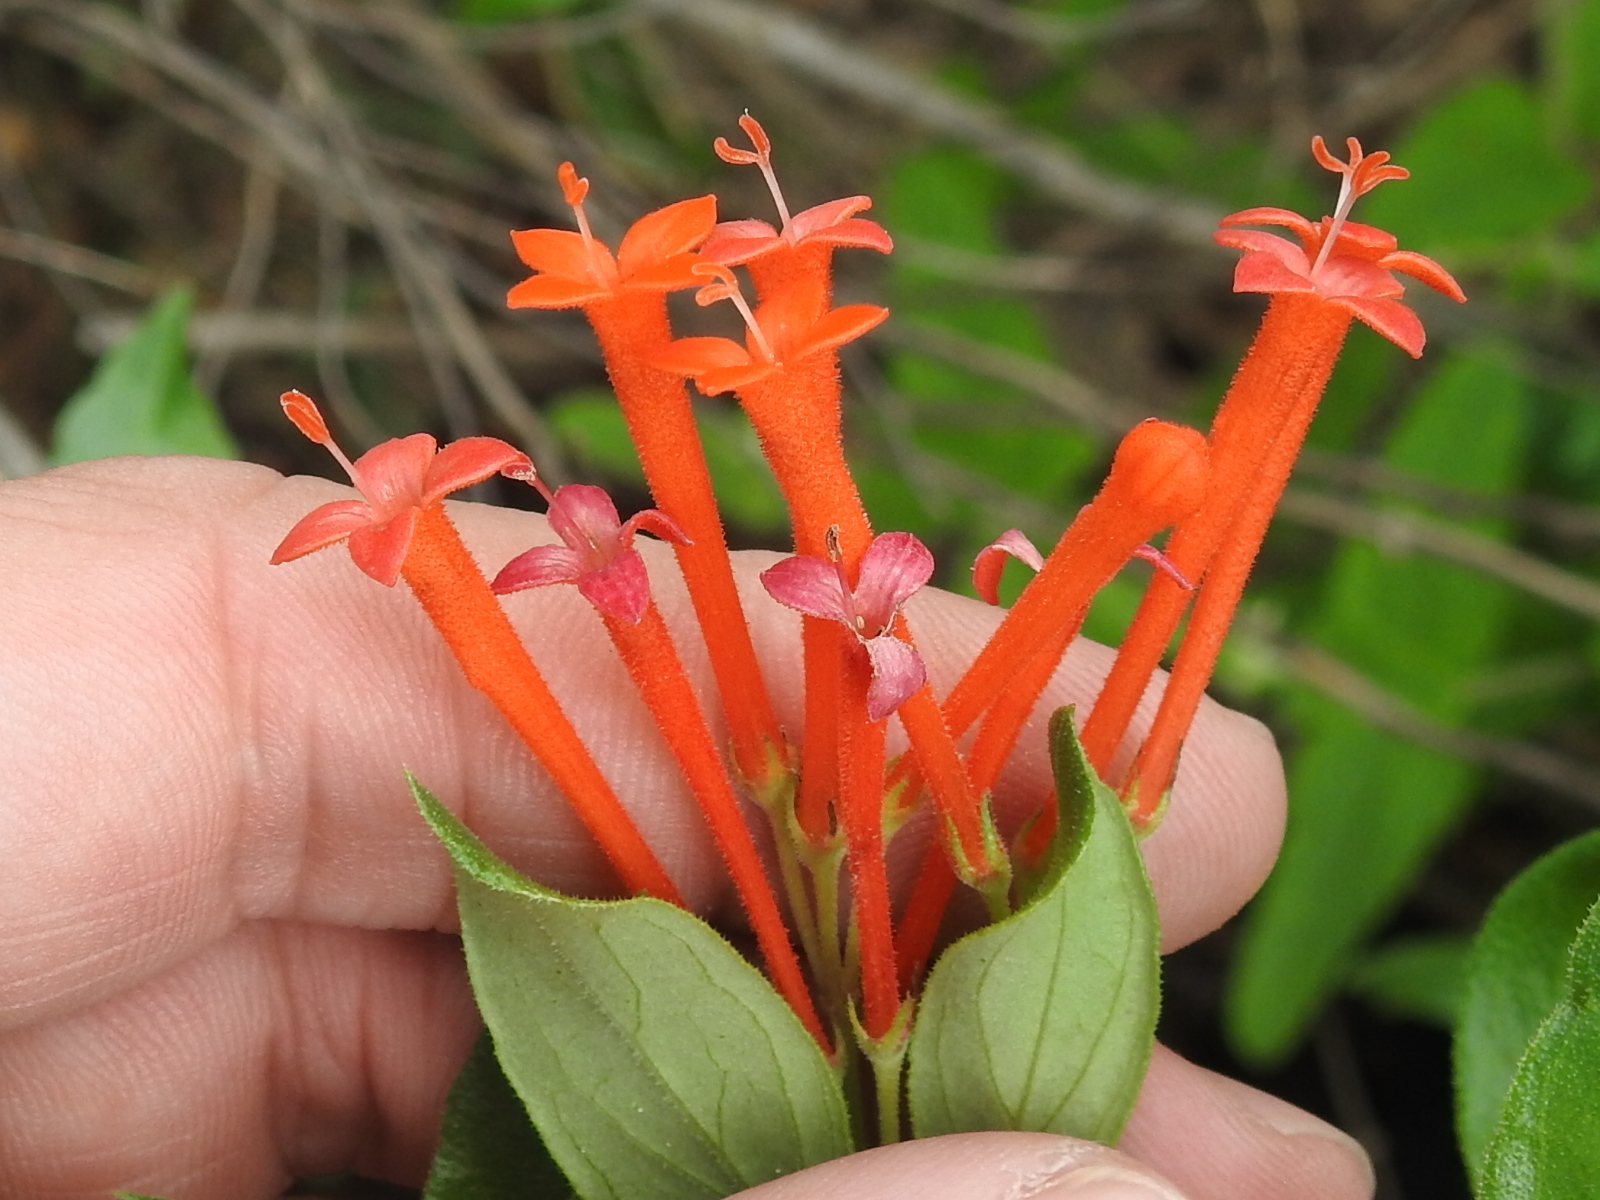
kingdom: Plantae
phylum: Tracheophyta
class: Magnoliopsida
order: Gentianales
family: Rubiaceae
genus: Bouvardia
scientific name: Bouvardia ternifolia
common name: Scarlet bouvardia
